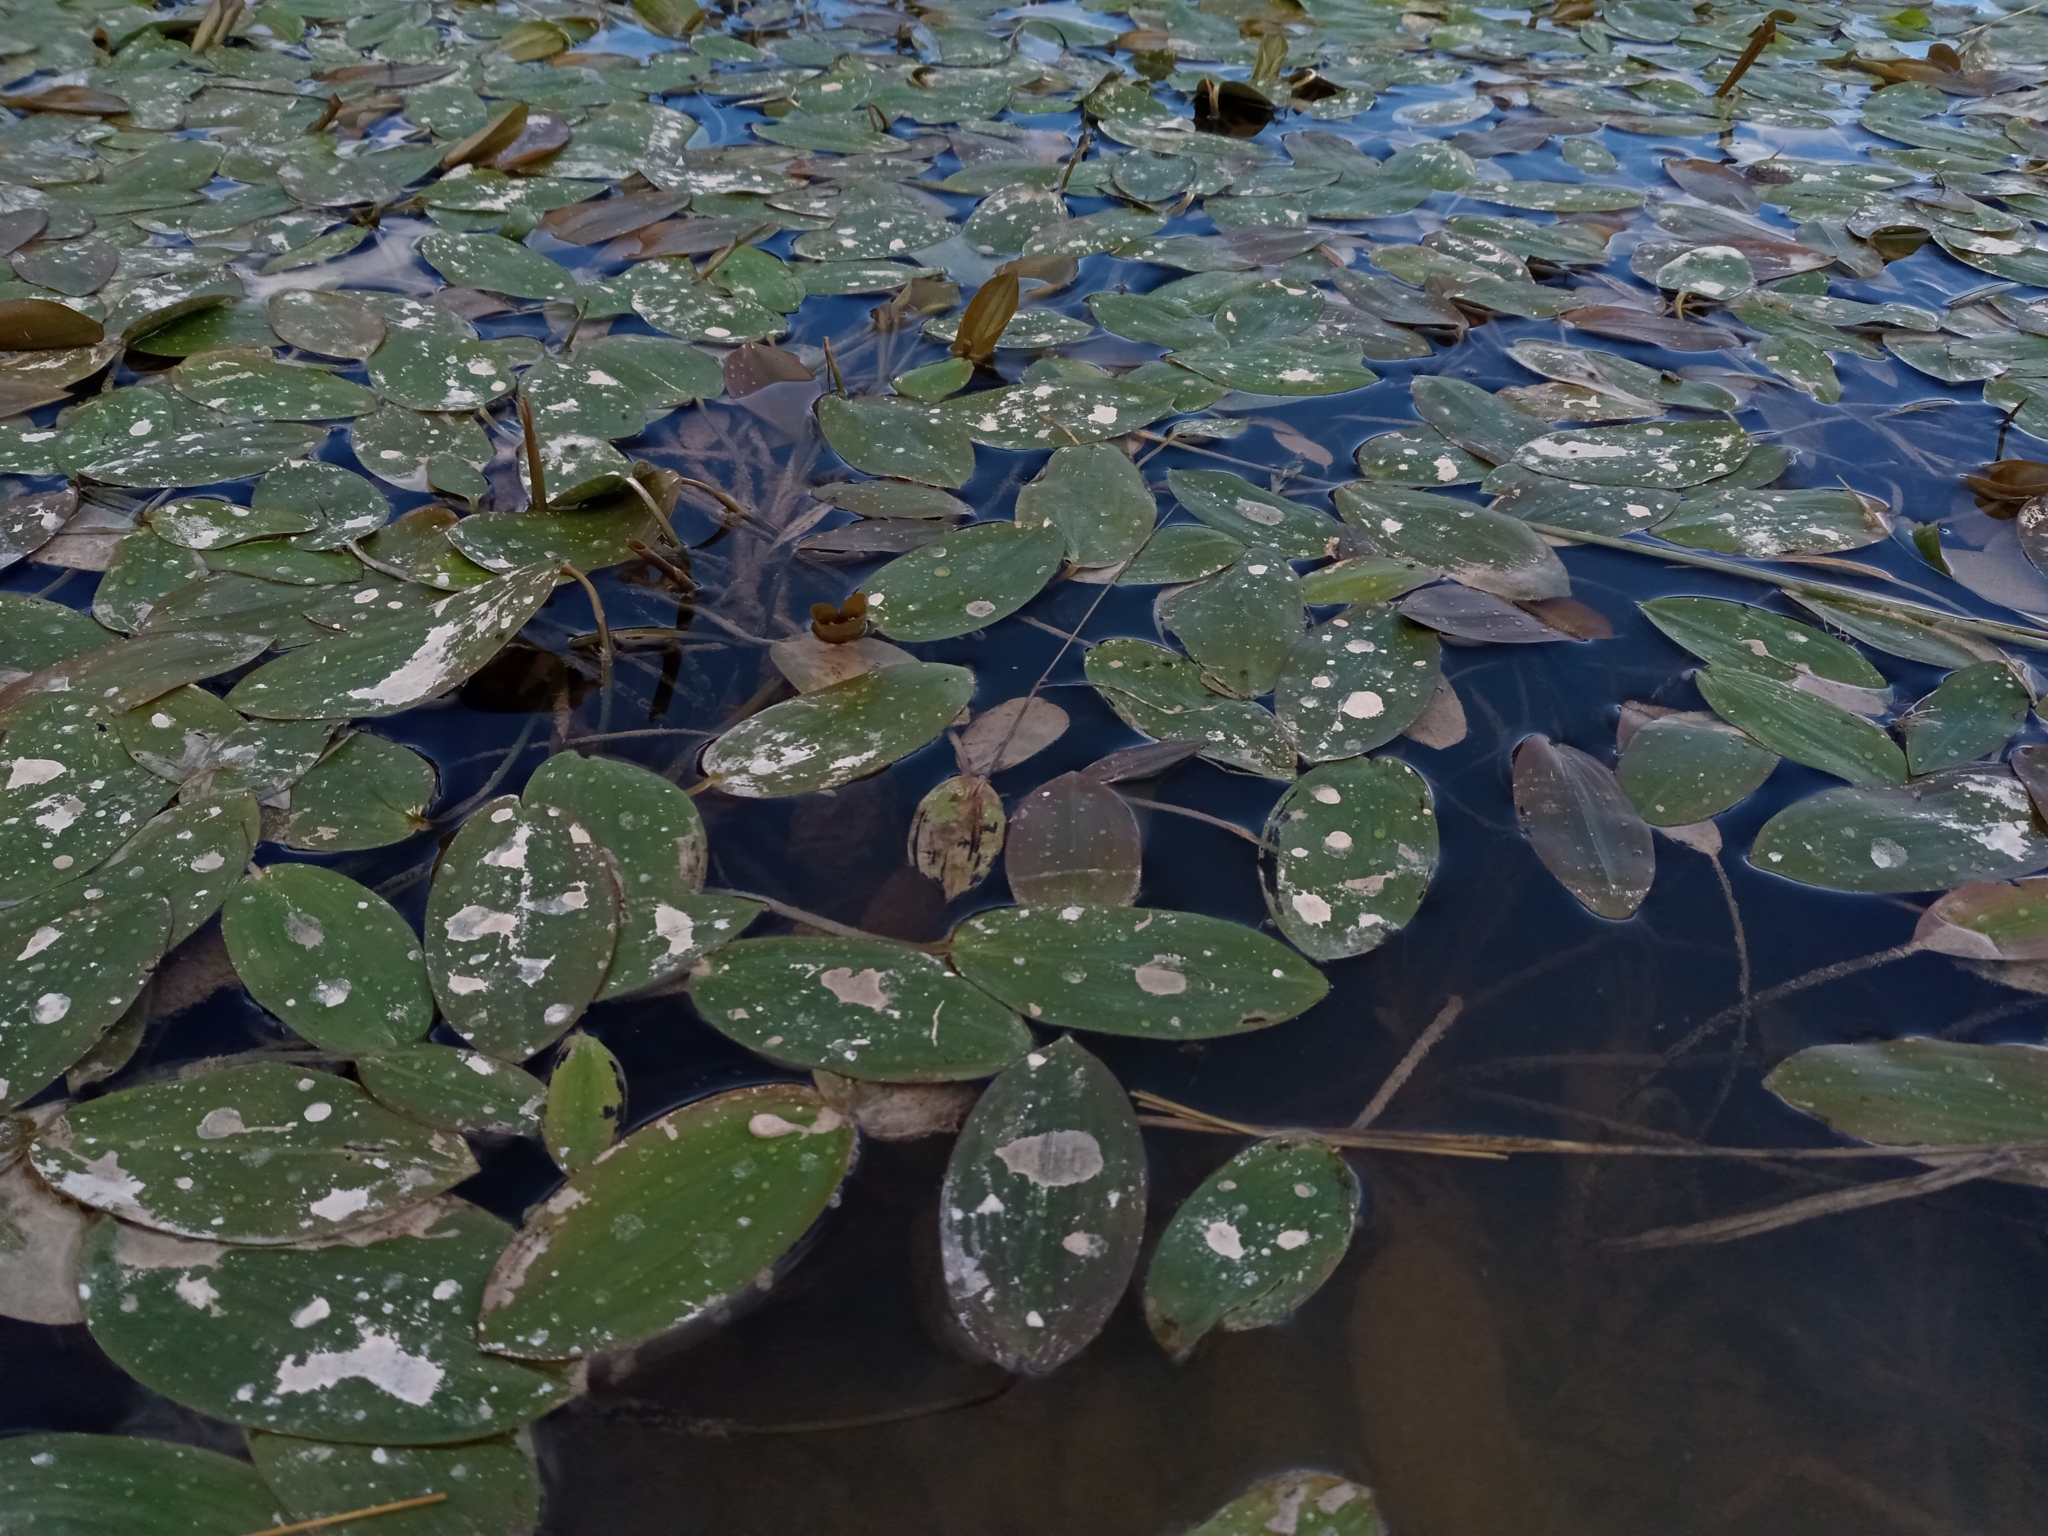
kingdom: Plantae
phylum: Tracheophyta
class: Liliopsida
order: Alismatales
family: Potamogetonaceae
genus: Potamogeton
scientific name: Potamogeton natans
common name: Broad-leaved pondweed
